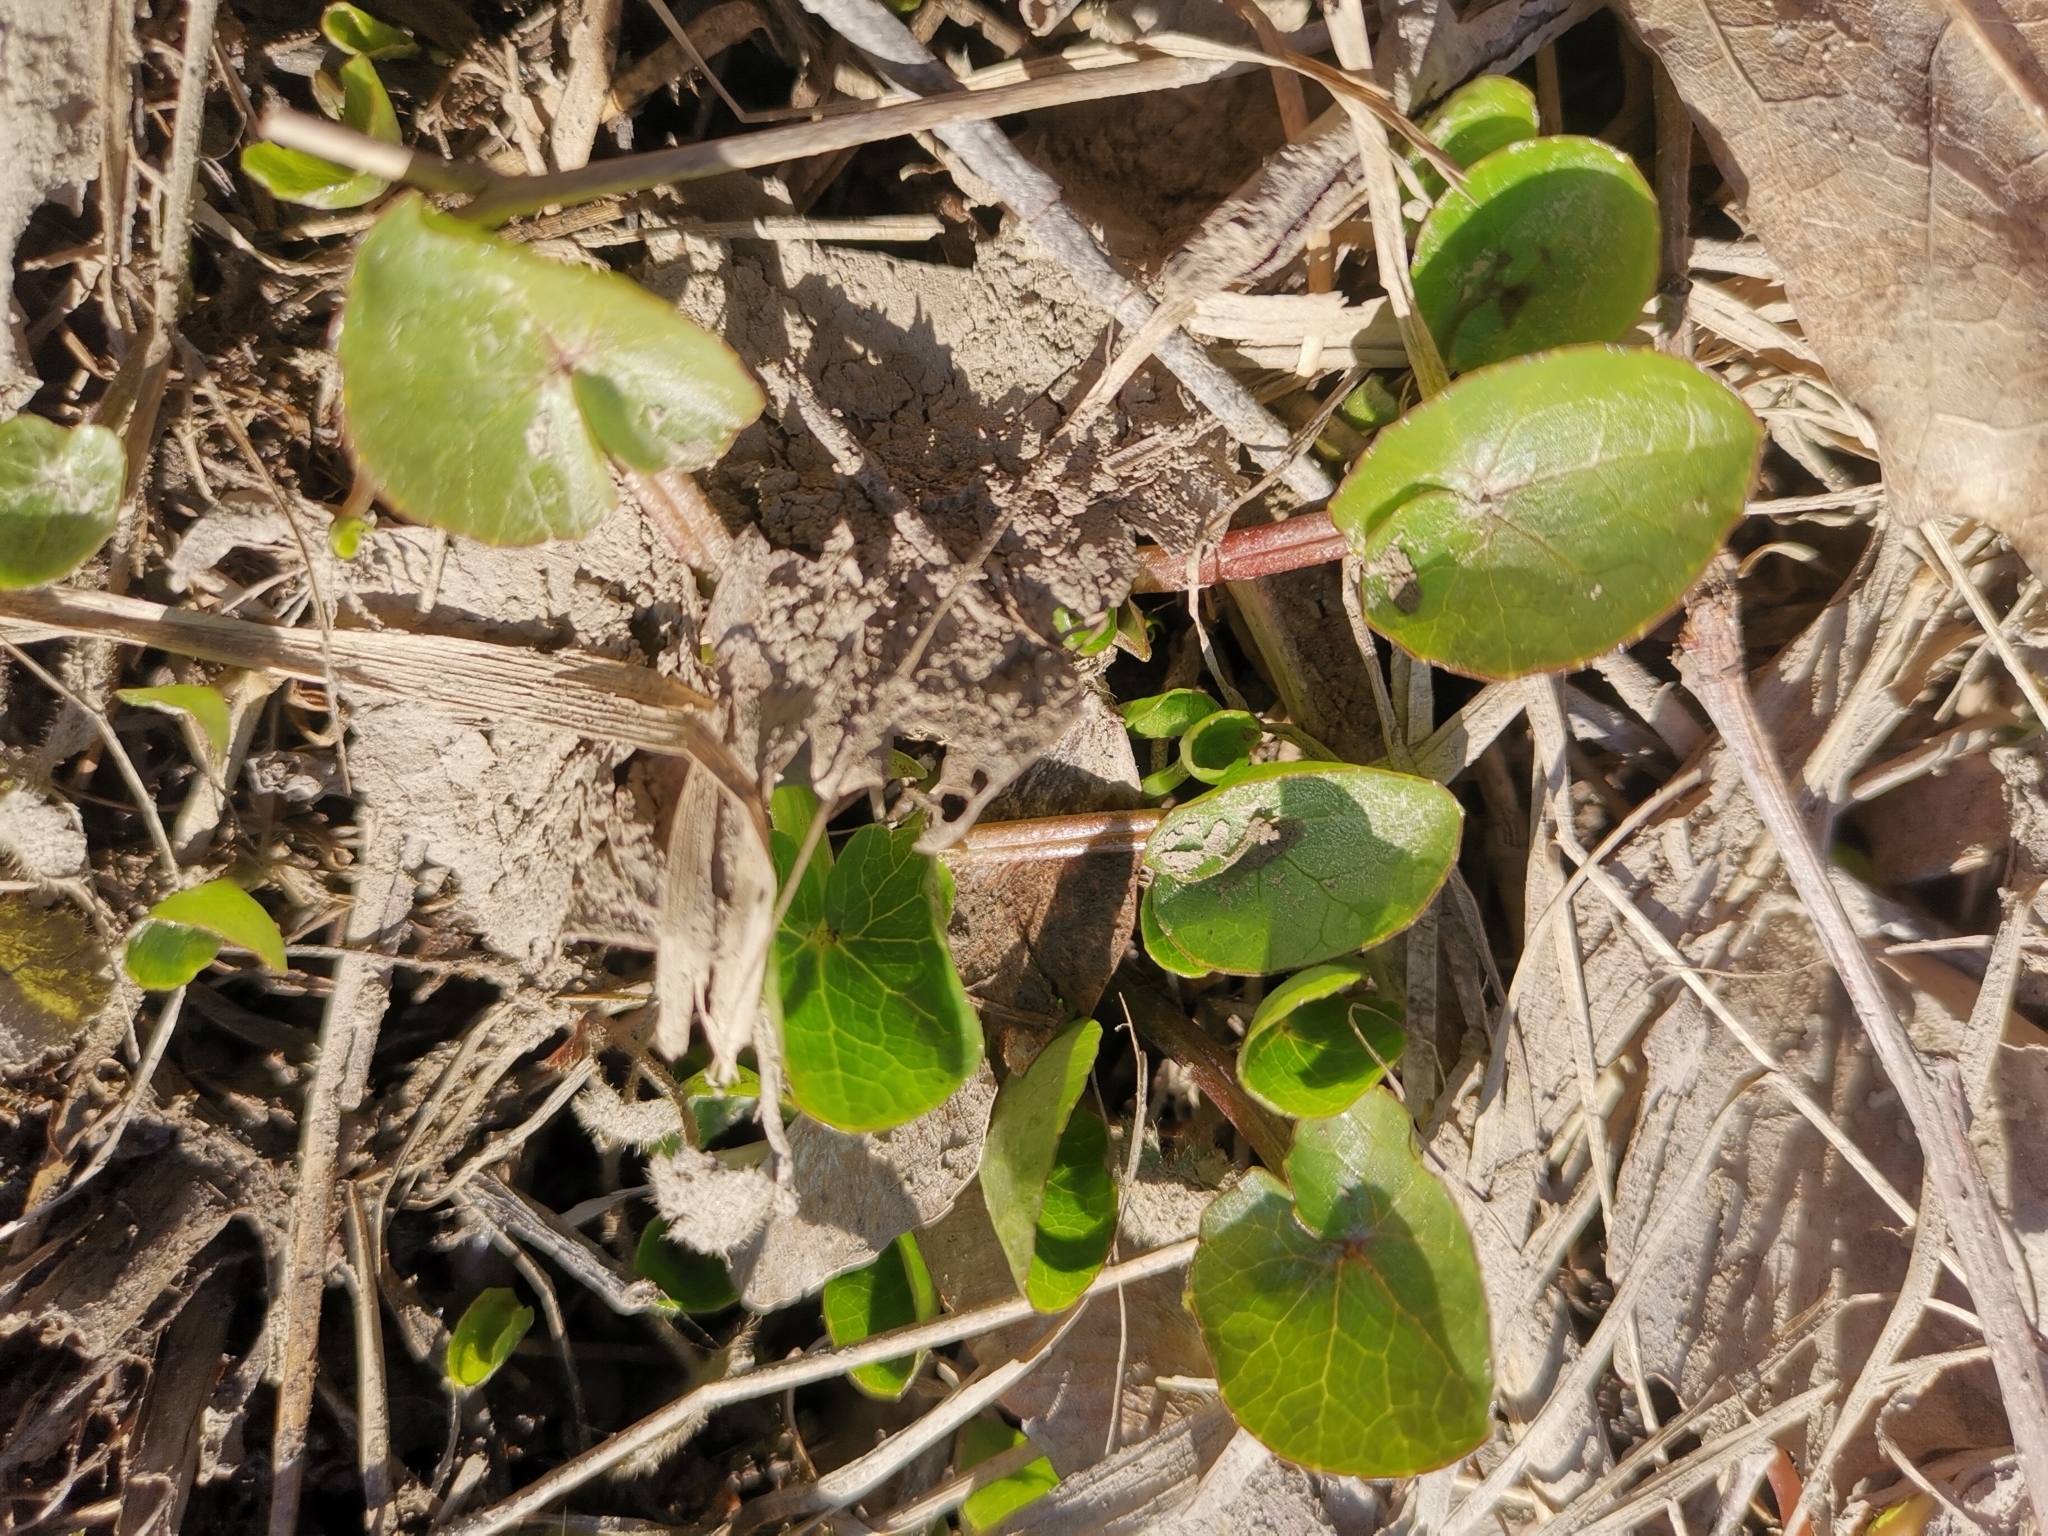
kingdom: Plantae
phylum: Tracheophyta
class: Magnoliopsida
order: Ranunculales
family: Ranunculaceae
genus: Ficaria
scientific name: Ficaria verna
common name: Lesser celandine
